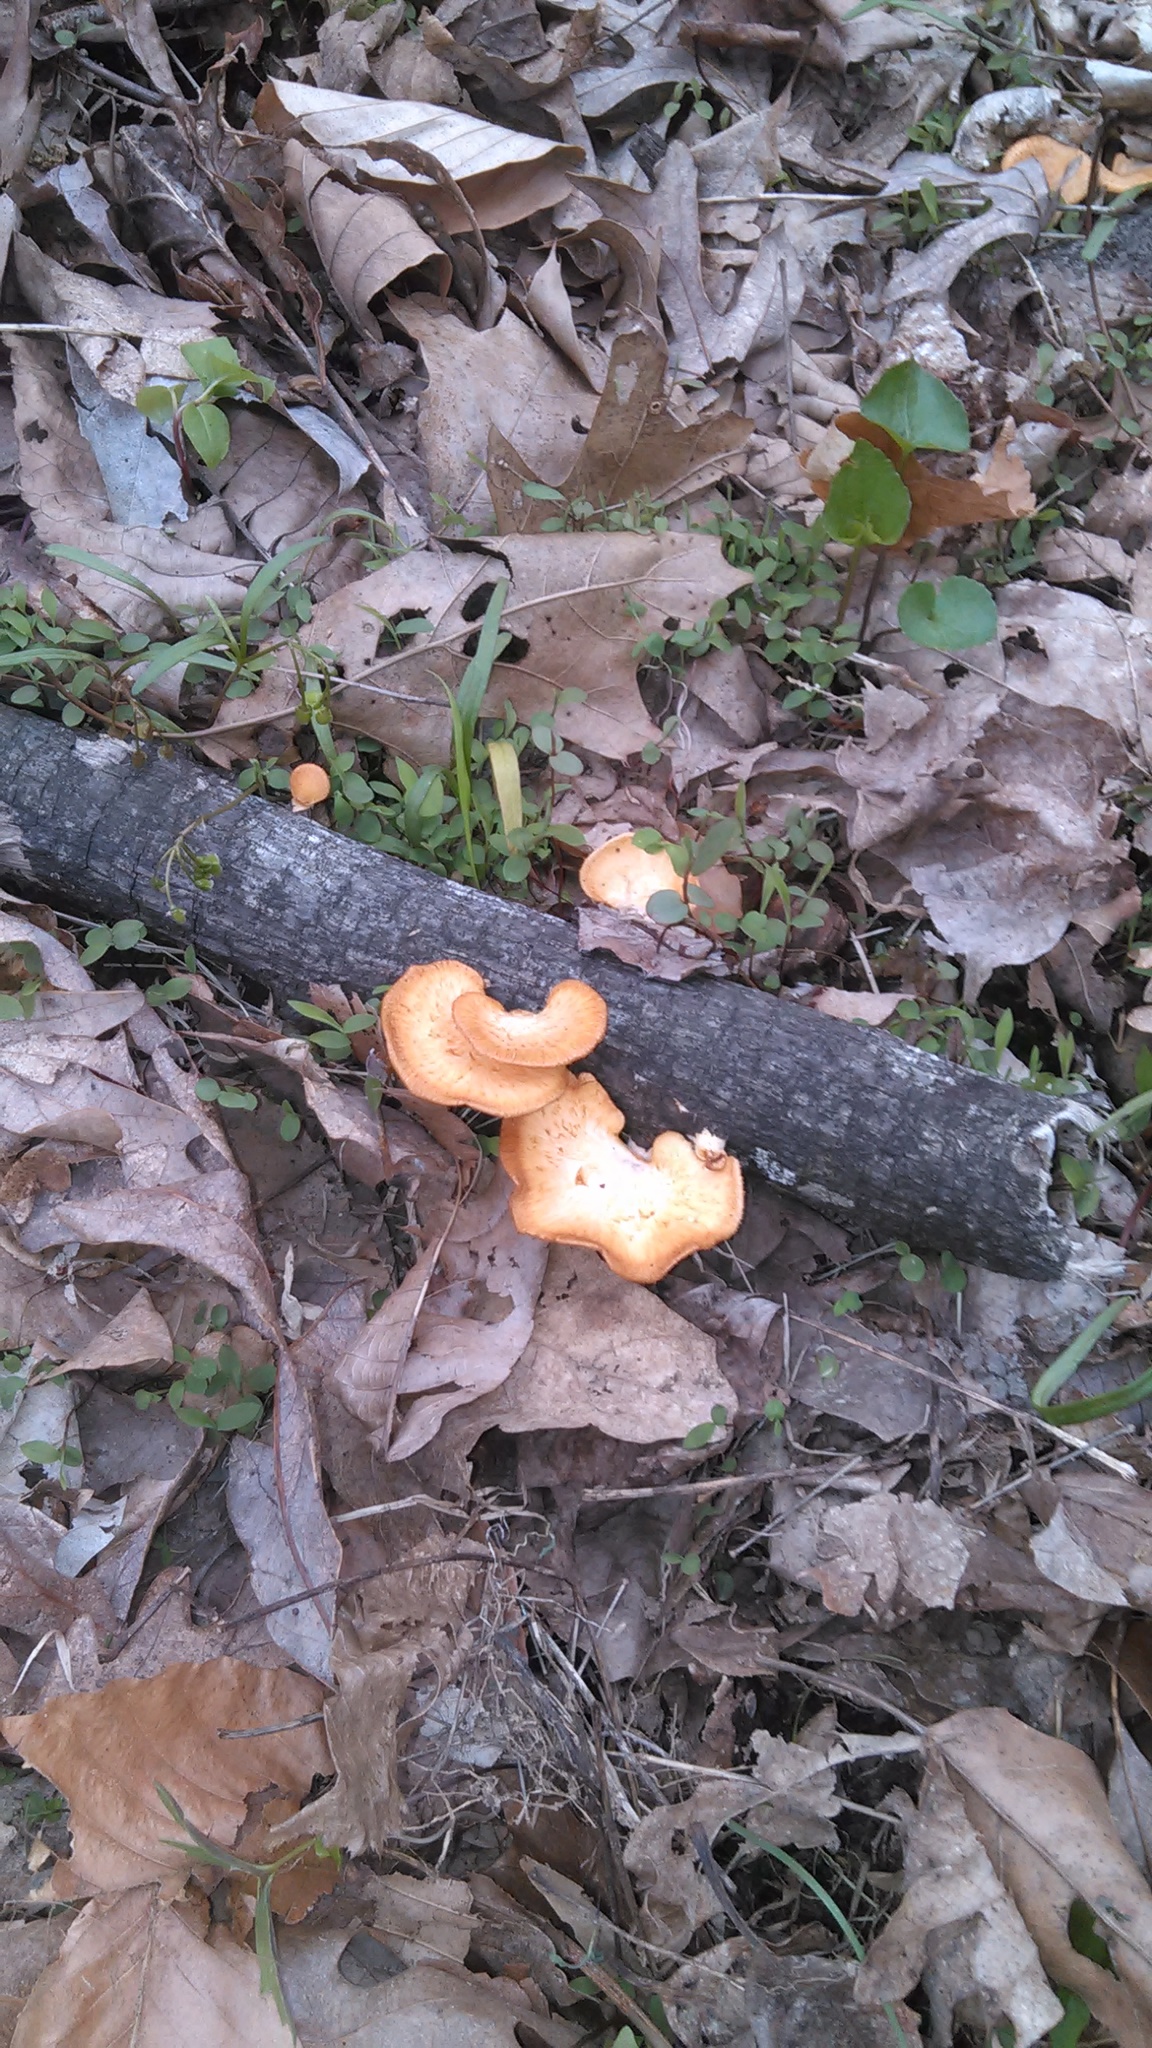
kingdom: Fungi
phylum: Basidiomycota
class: Agaricomycetes
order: Polyporales
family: Polyporaceae
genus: Neofavolus
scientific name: Neofavolus alveolaris
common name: Hexagonal-pored polypore
